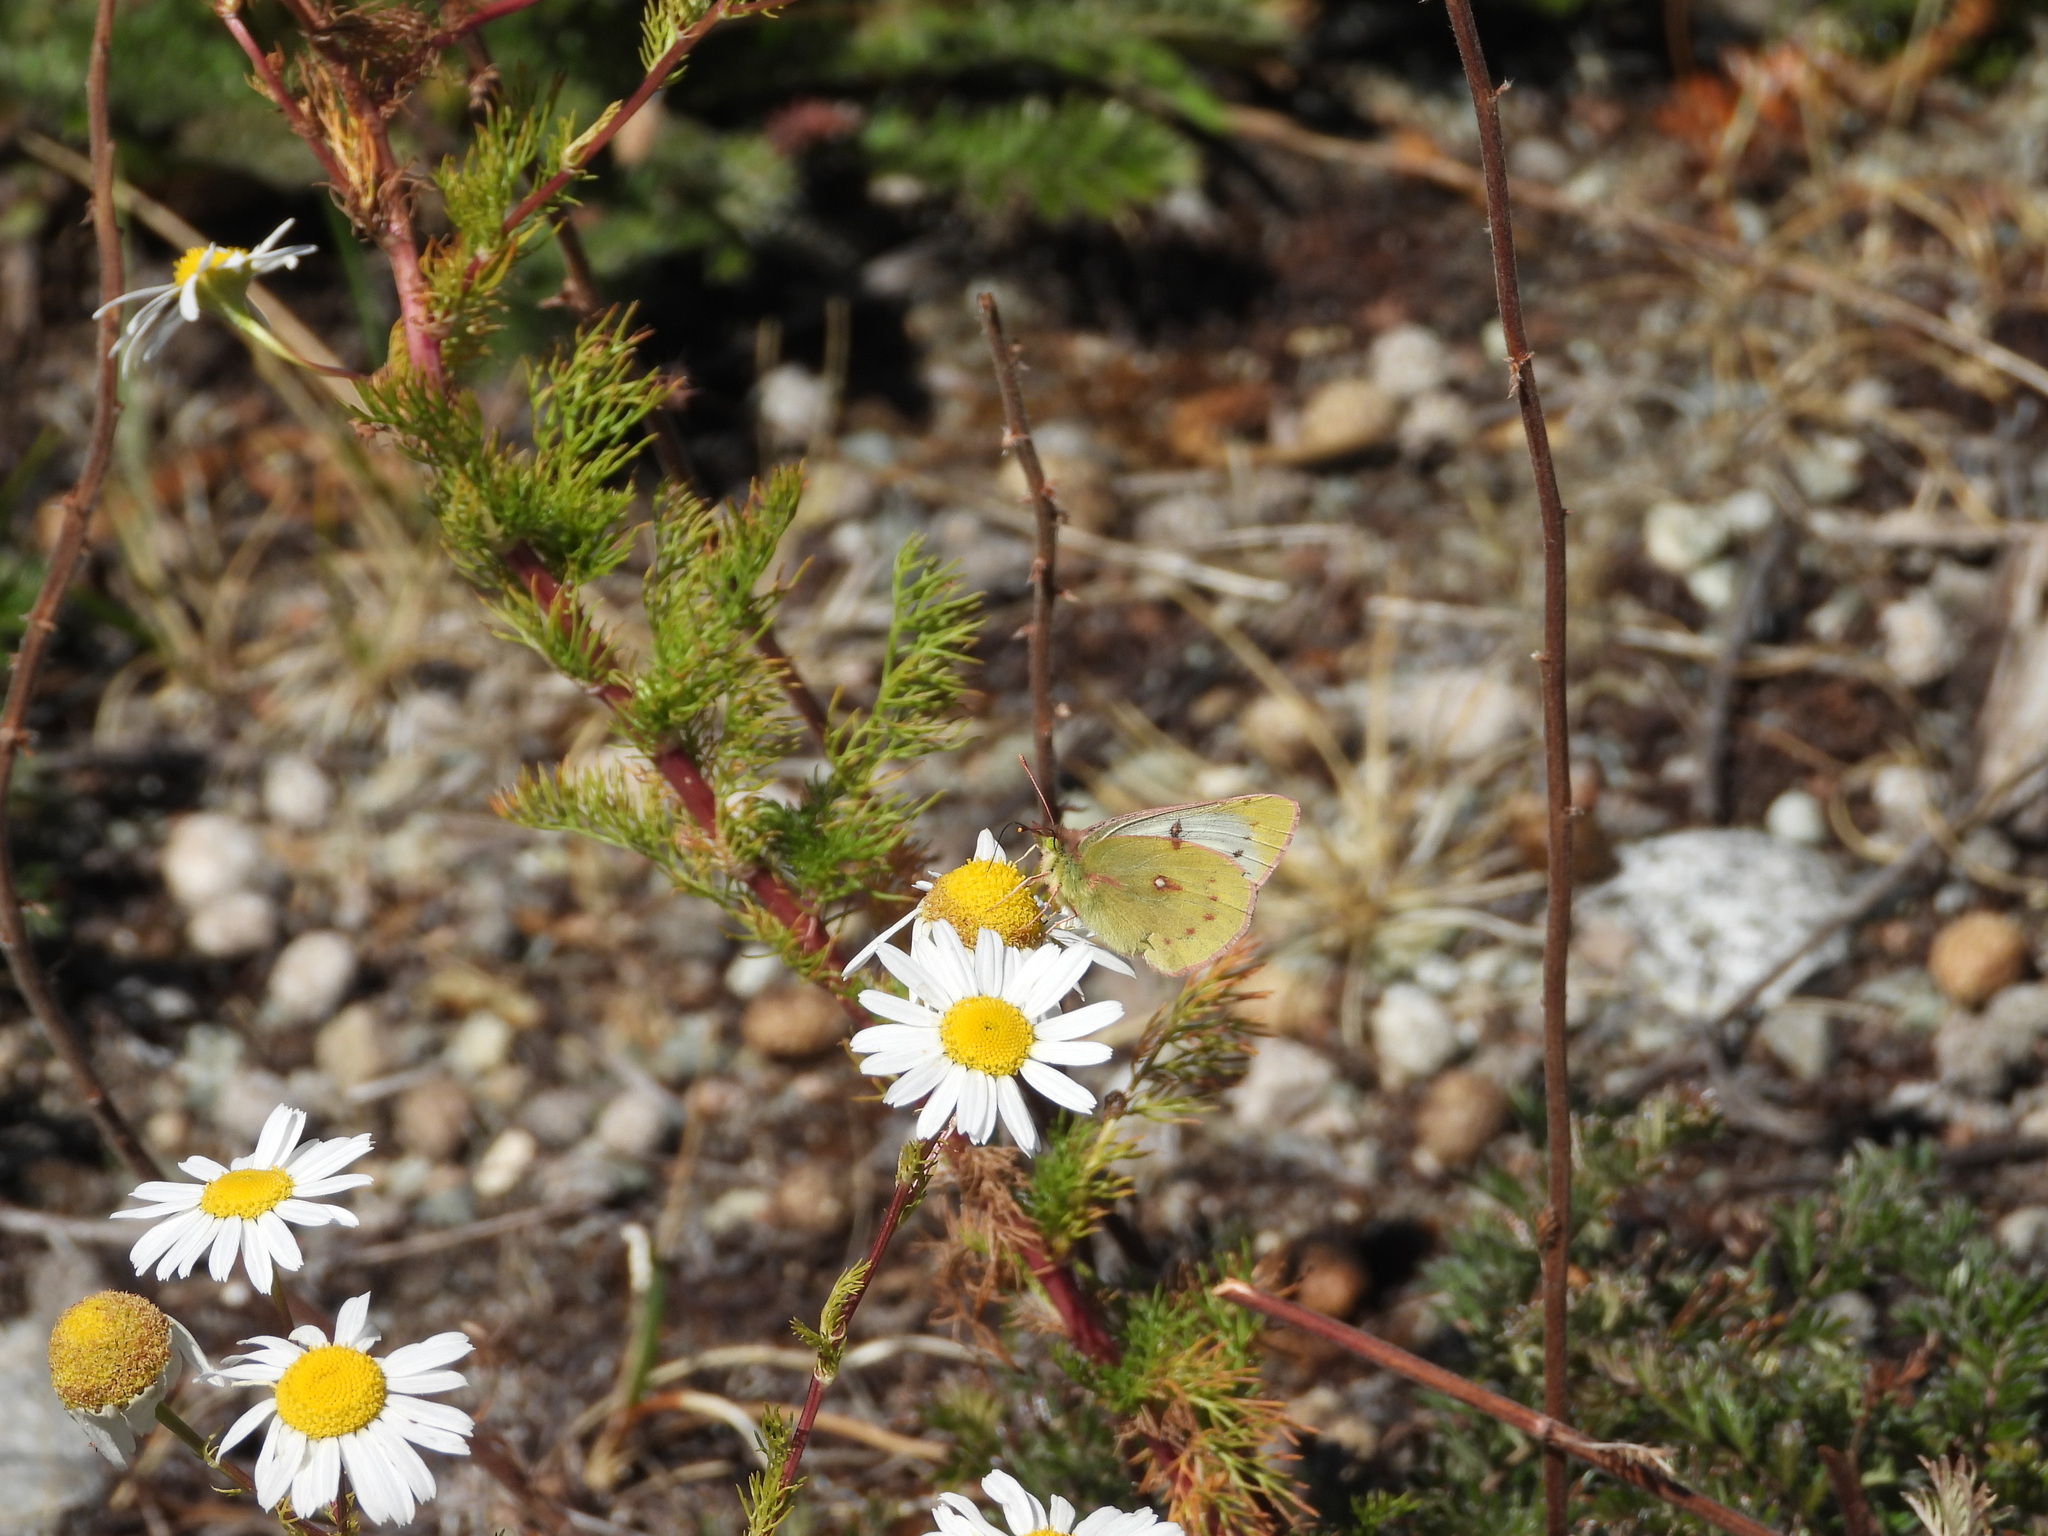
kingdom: Animalia
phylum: Arthropoda
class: Insecta
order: Lepidoptera
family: Pieridae
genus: Colias
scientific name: Colias vauthierii
